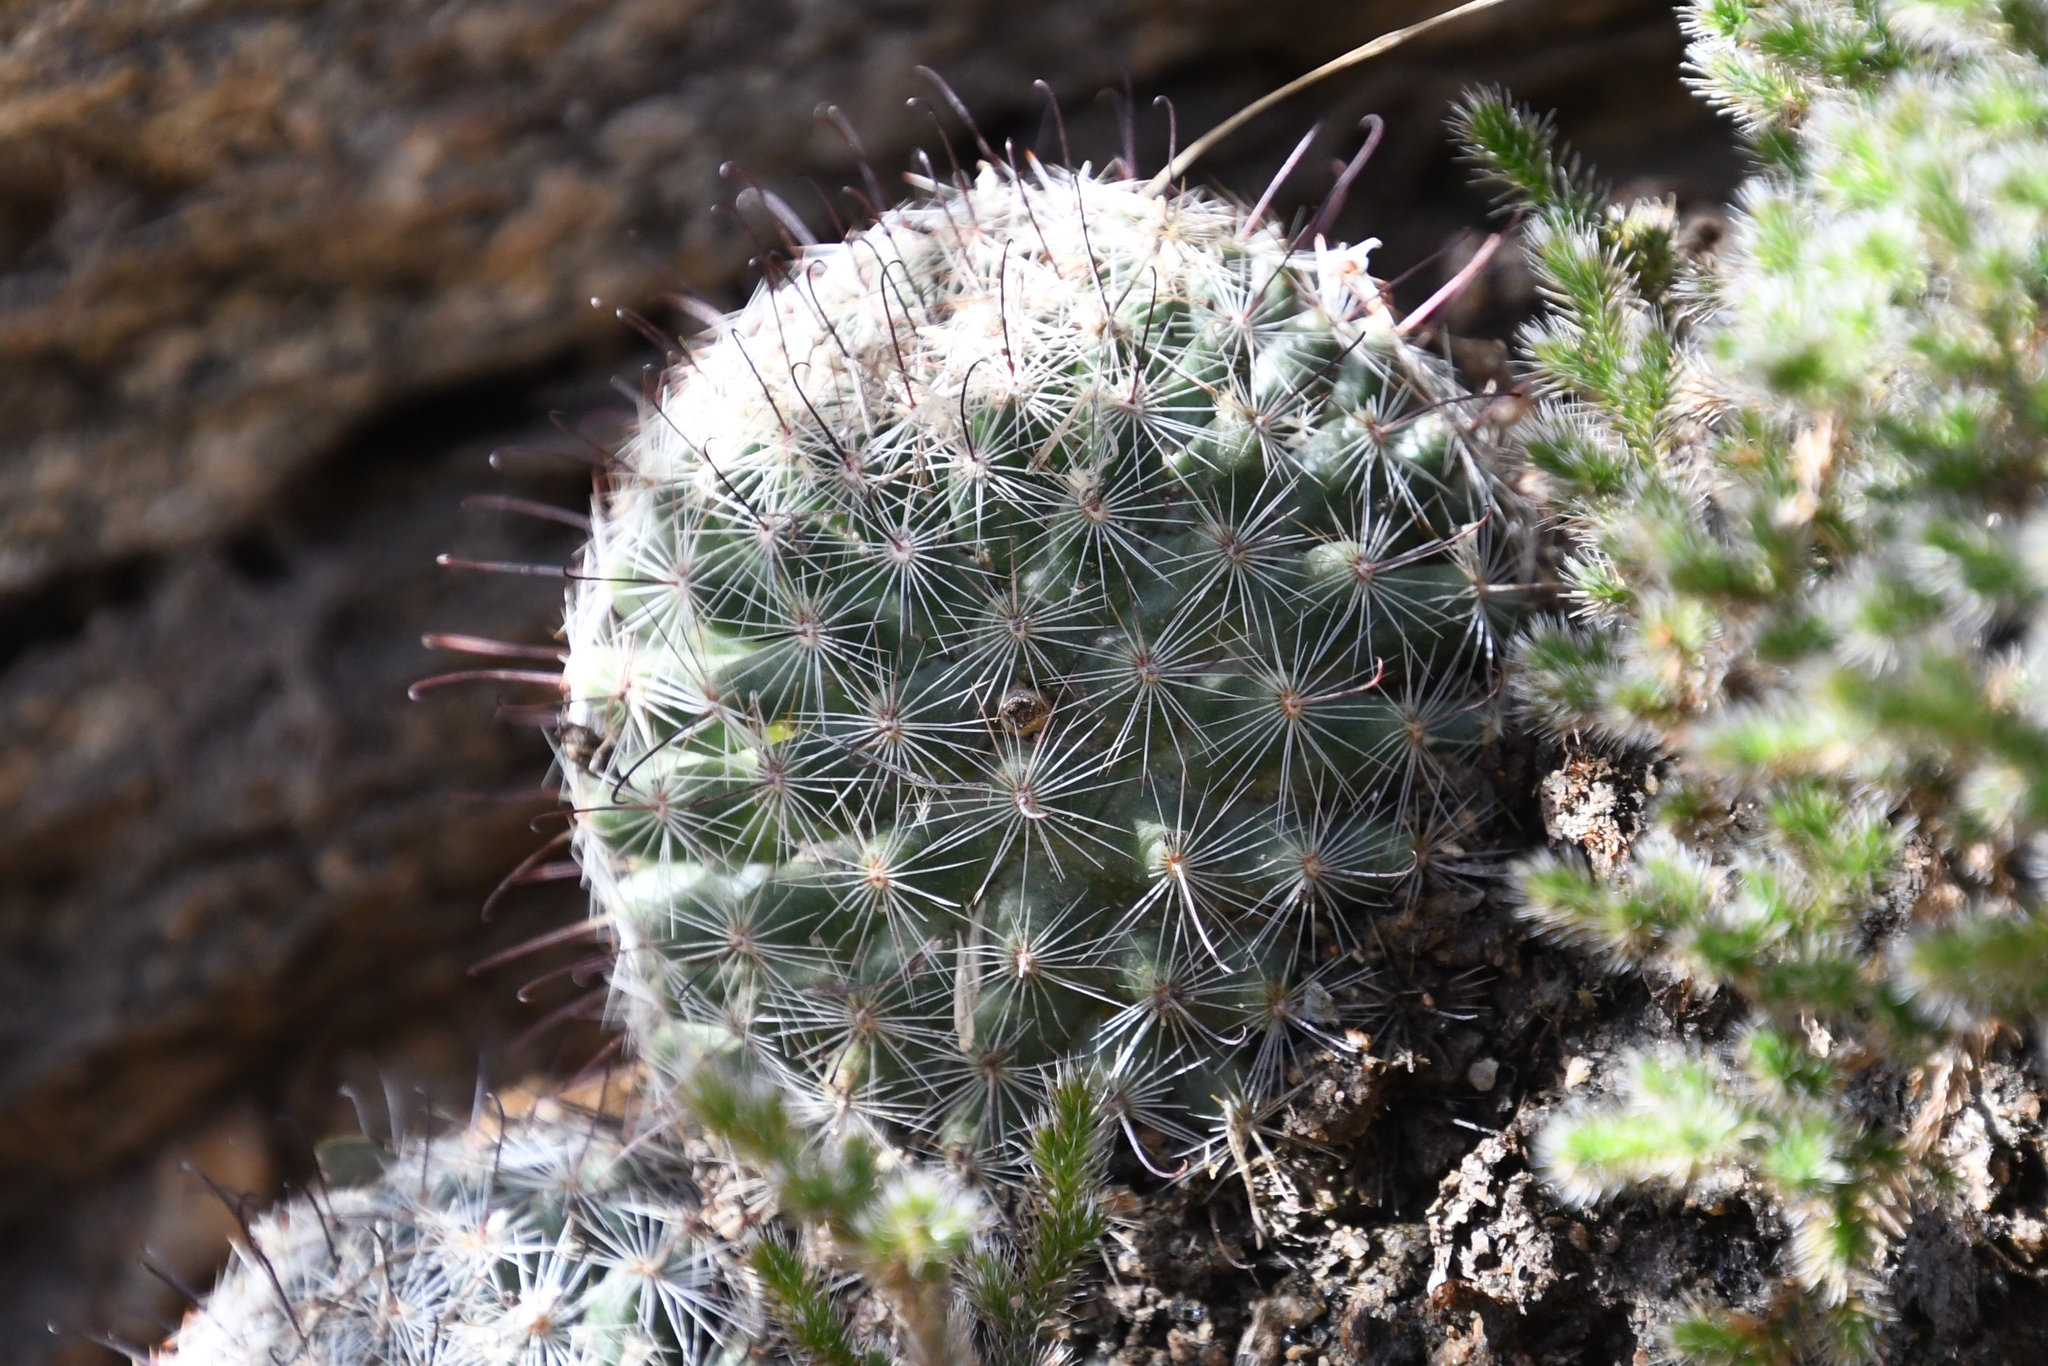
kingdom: Plantae
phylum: Tracheophyta
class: Magnoliopsida
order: Caryophyllales
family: Cactaceae
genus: Cochemiea
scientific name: Cochemiea grahamii
